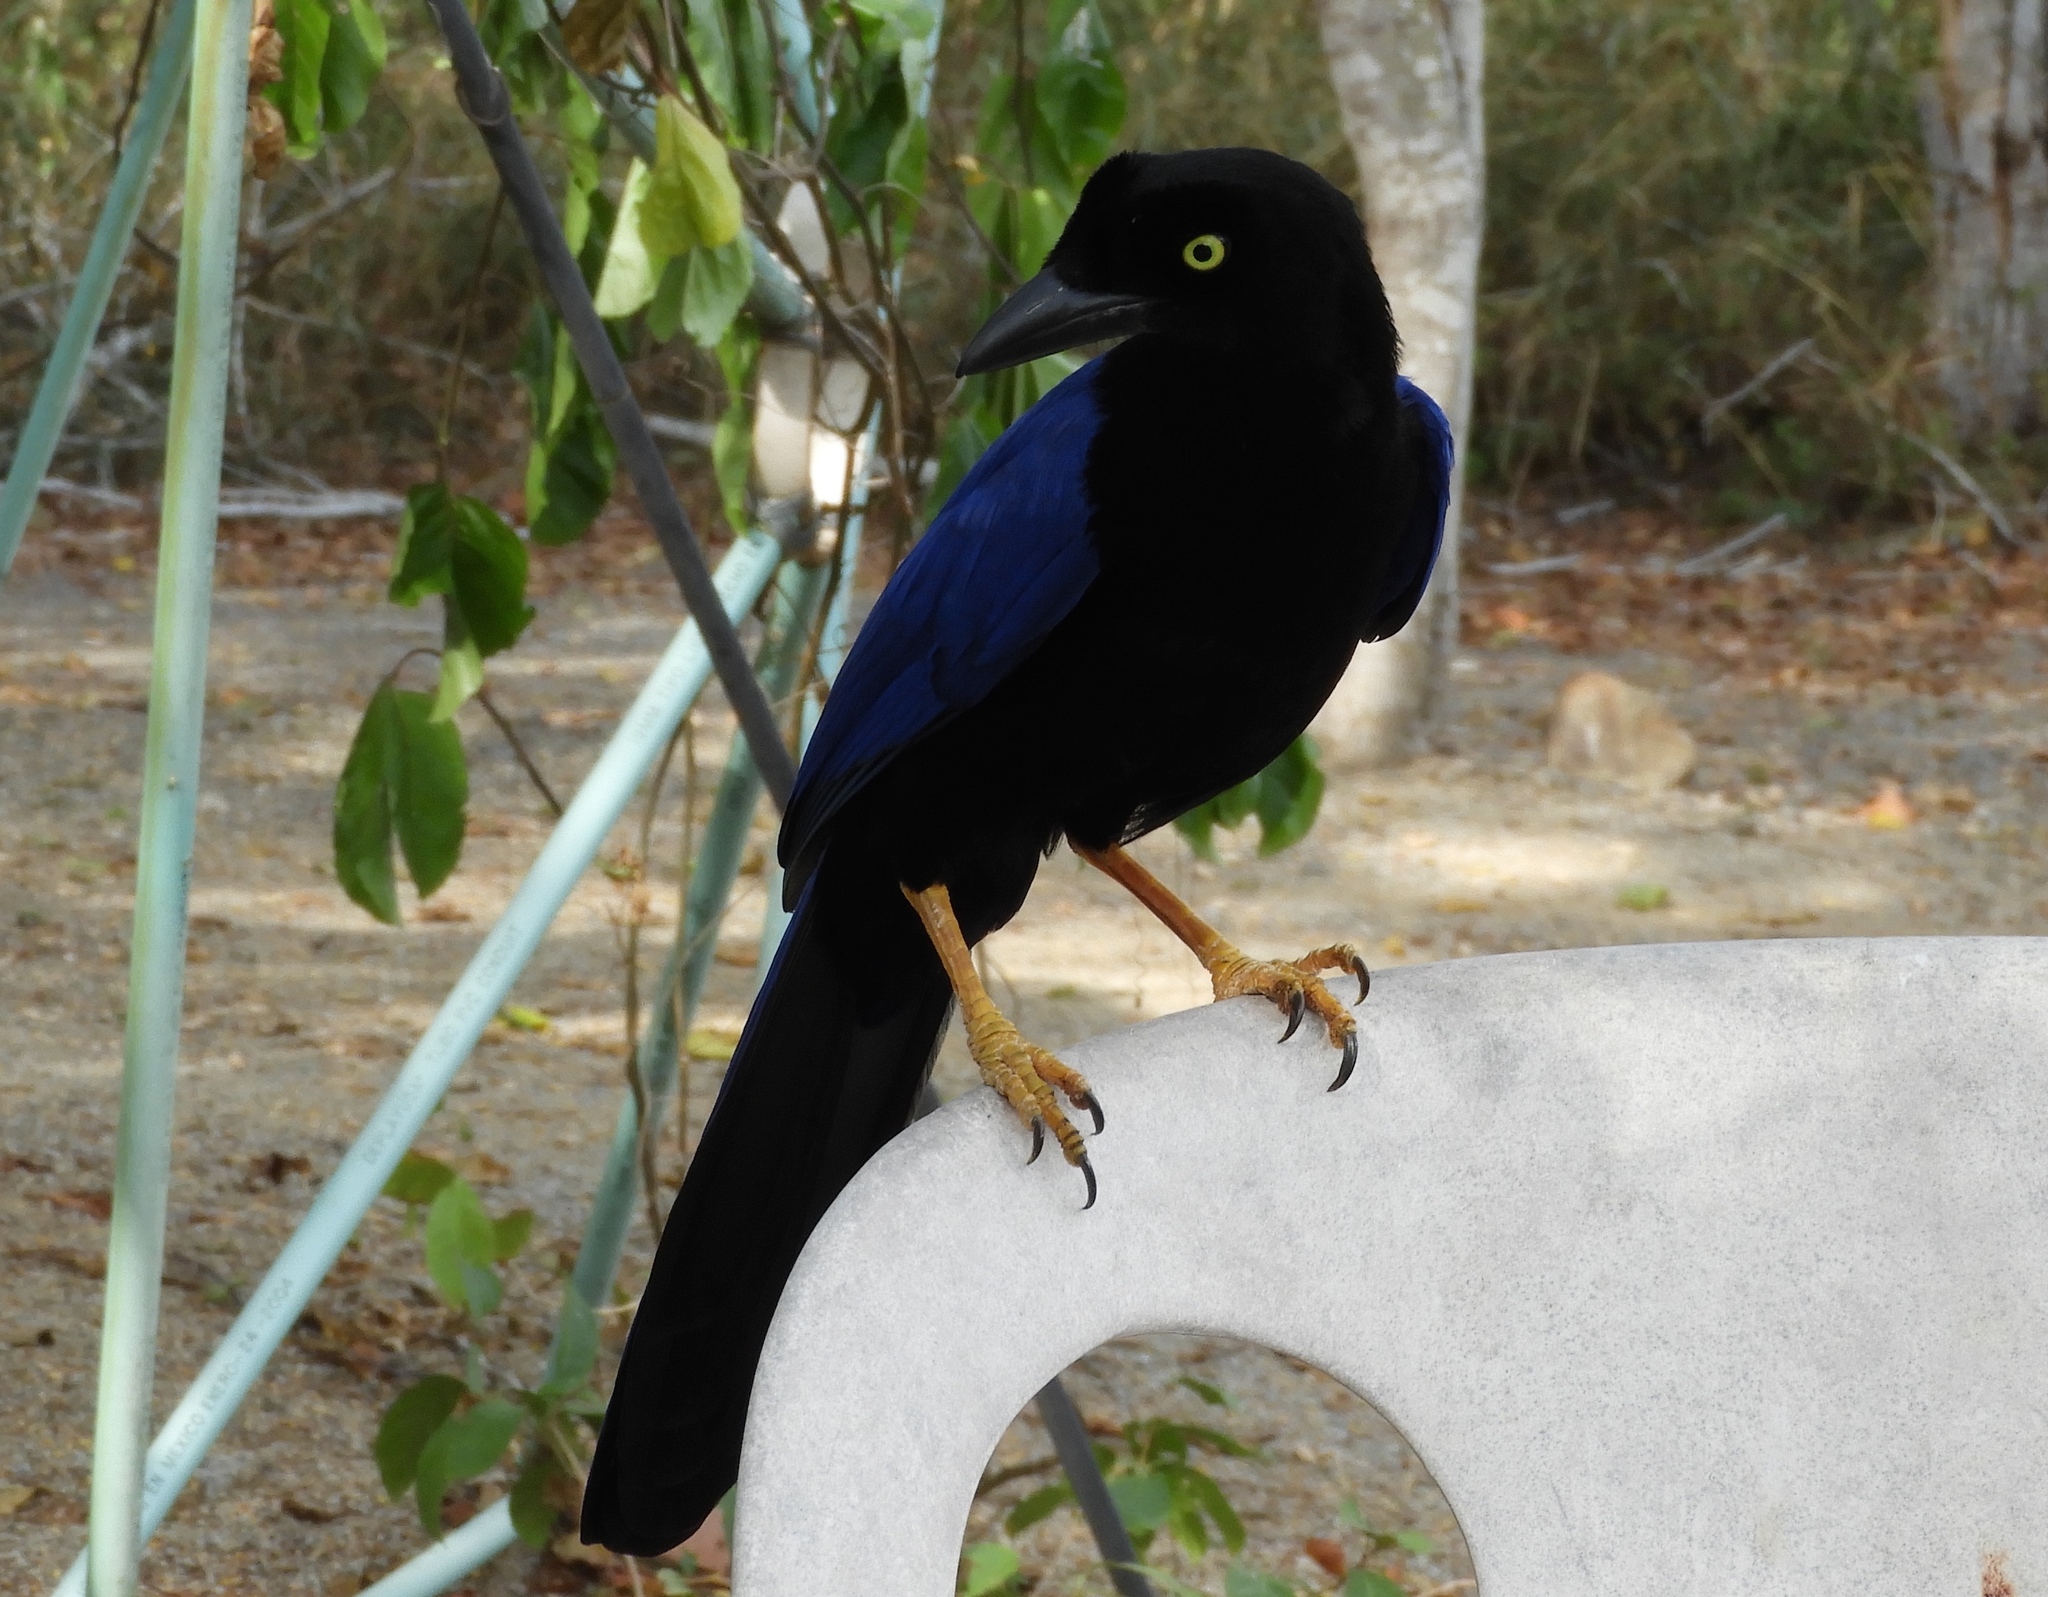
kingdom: Animalia
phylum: Chordata
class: Aves
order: Passeriformes
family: Corvidae
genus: Cyanocorax
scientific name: Cyanocorax beecheii
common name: Purplish-backed jay
